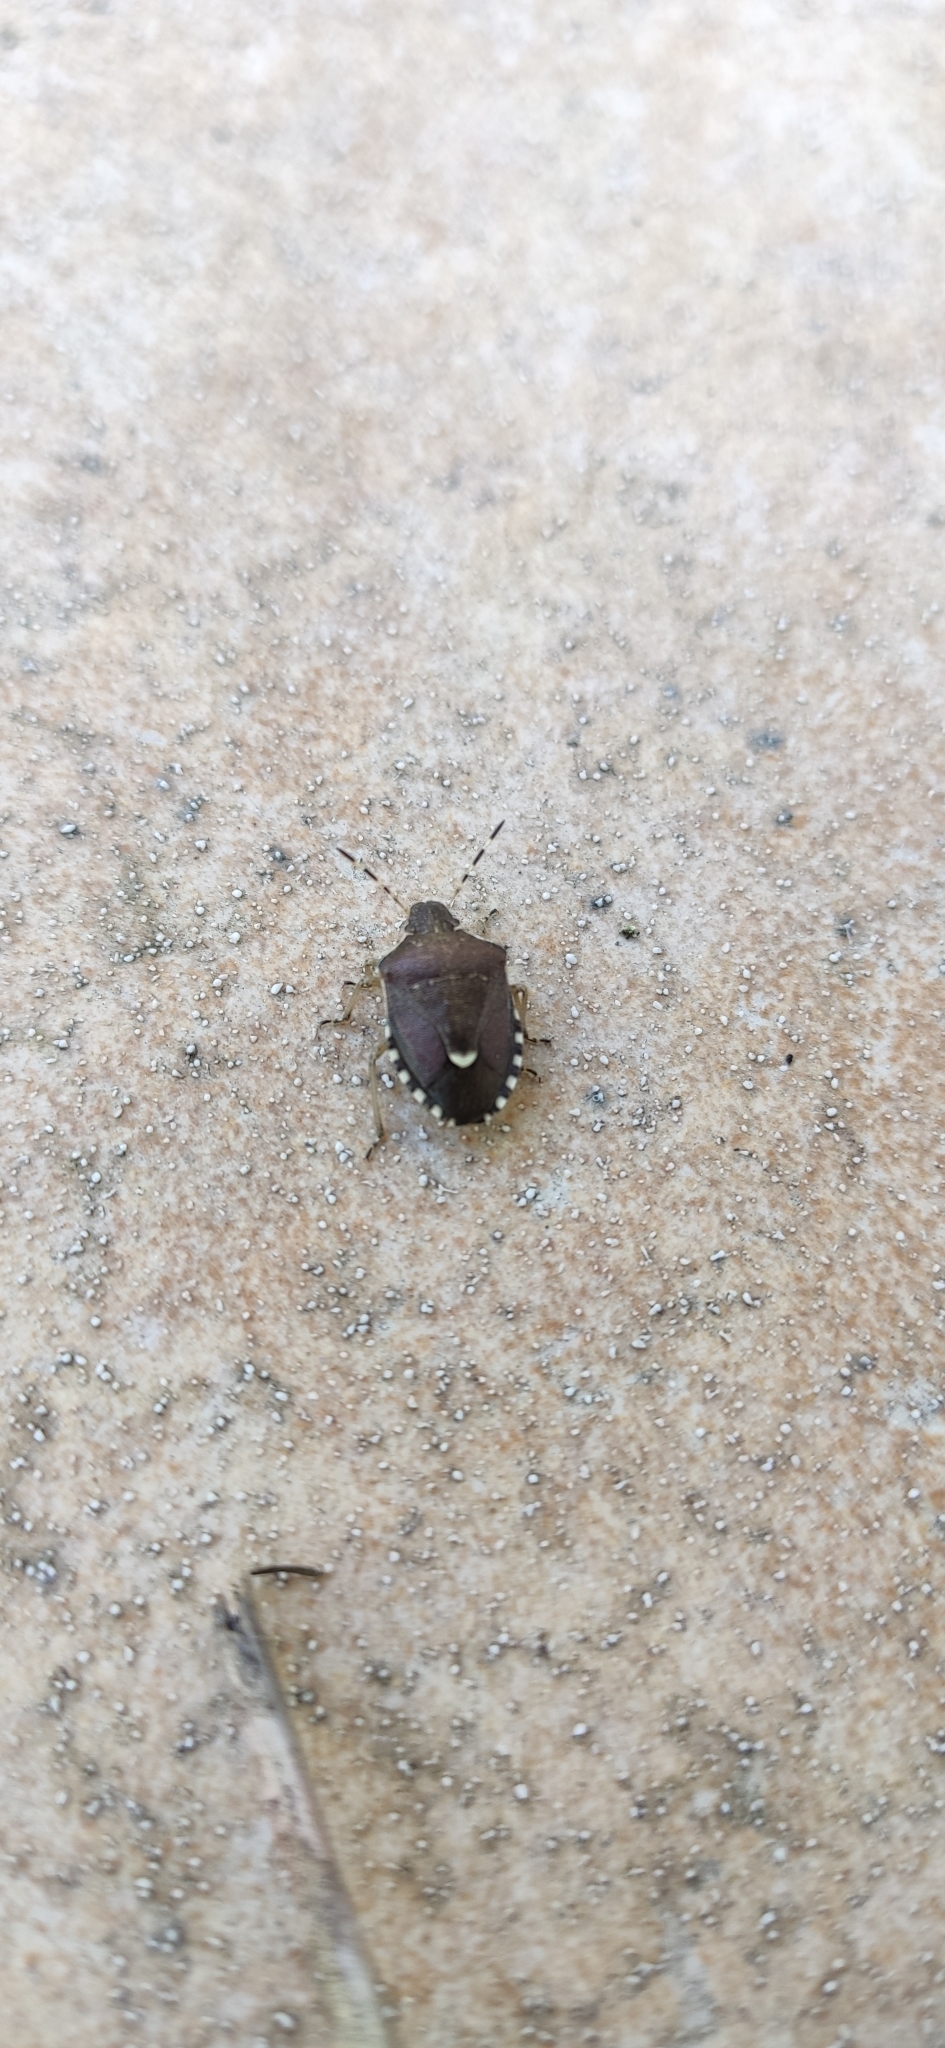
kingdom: Animalia
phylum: Arthropoda
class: Insecta
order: Hemiptera
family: Pentatomidae
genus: Holcostethus
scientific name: Holcostethus sphacelatus
